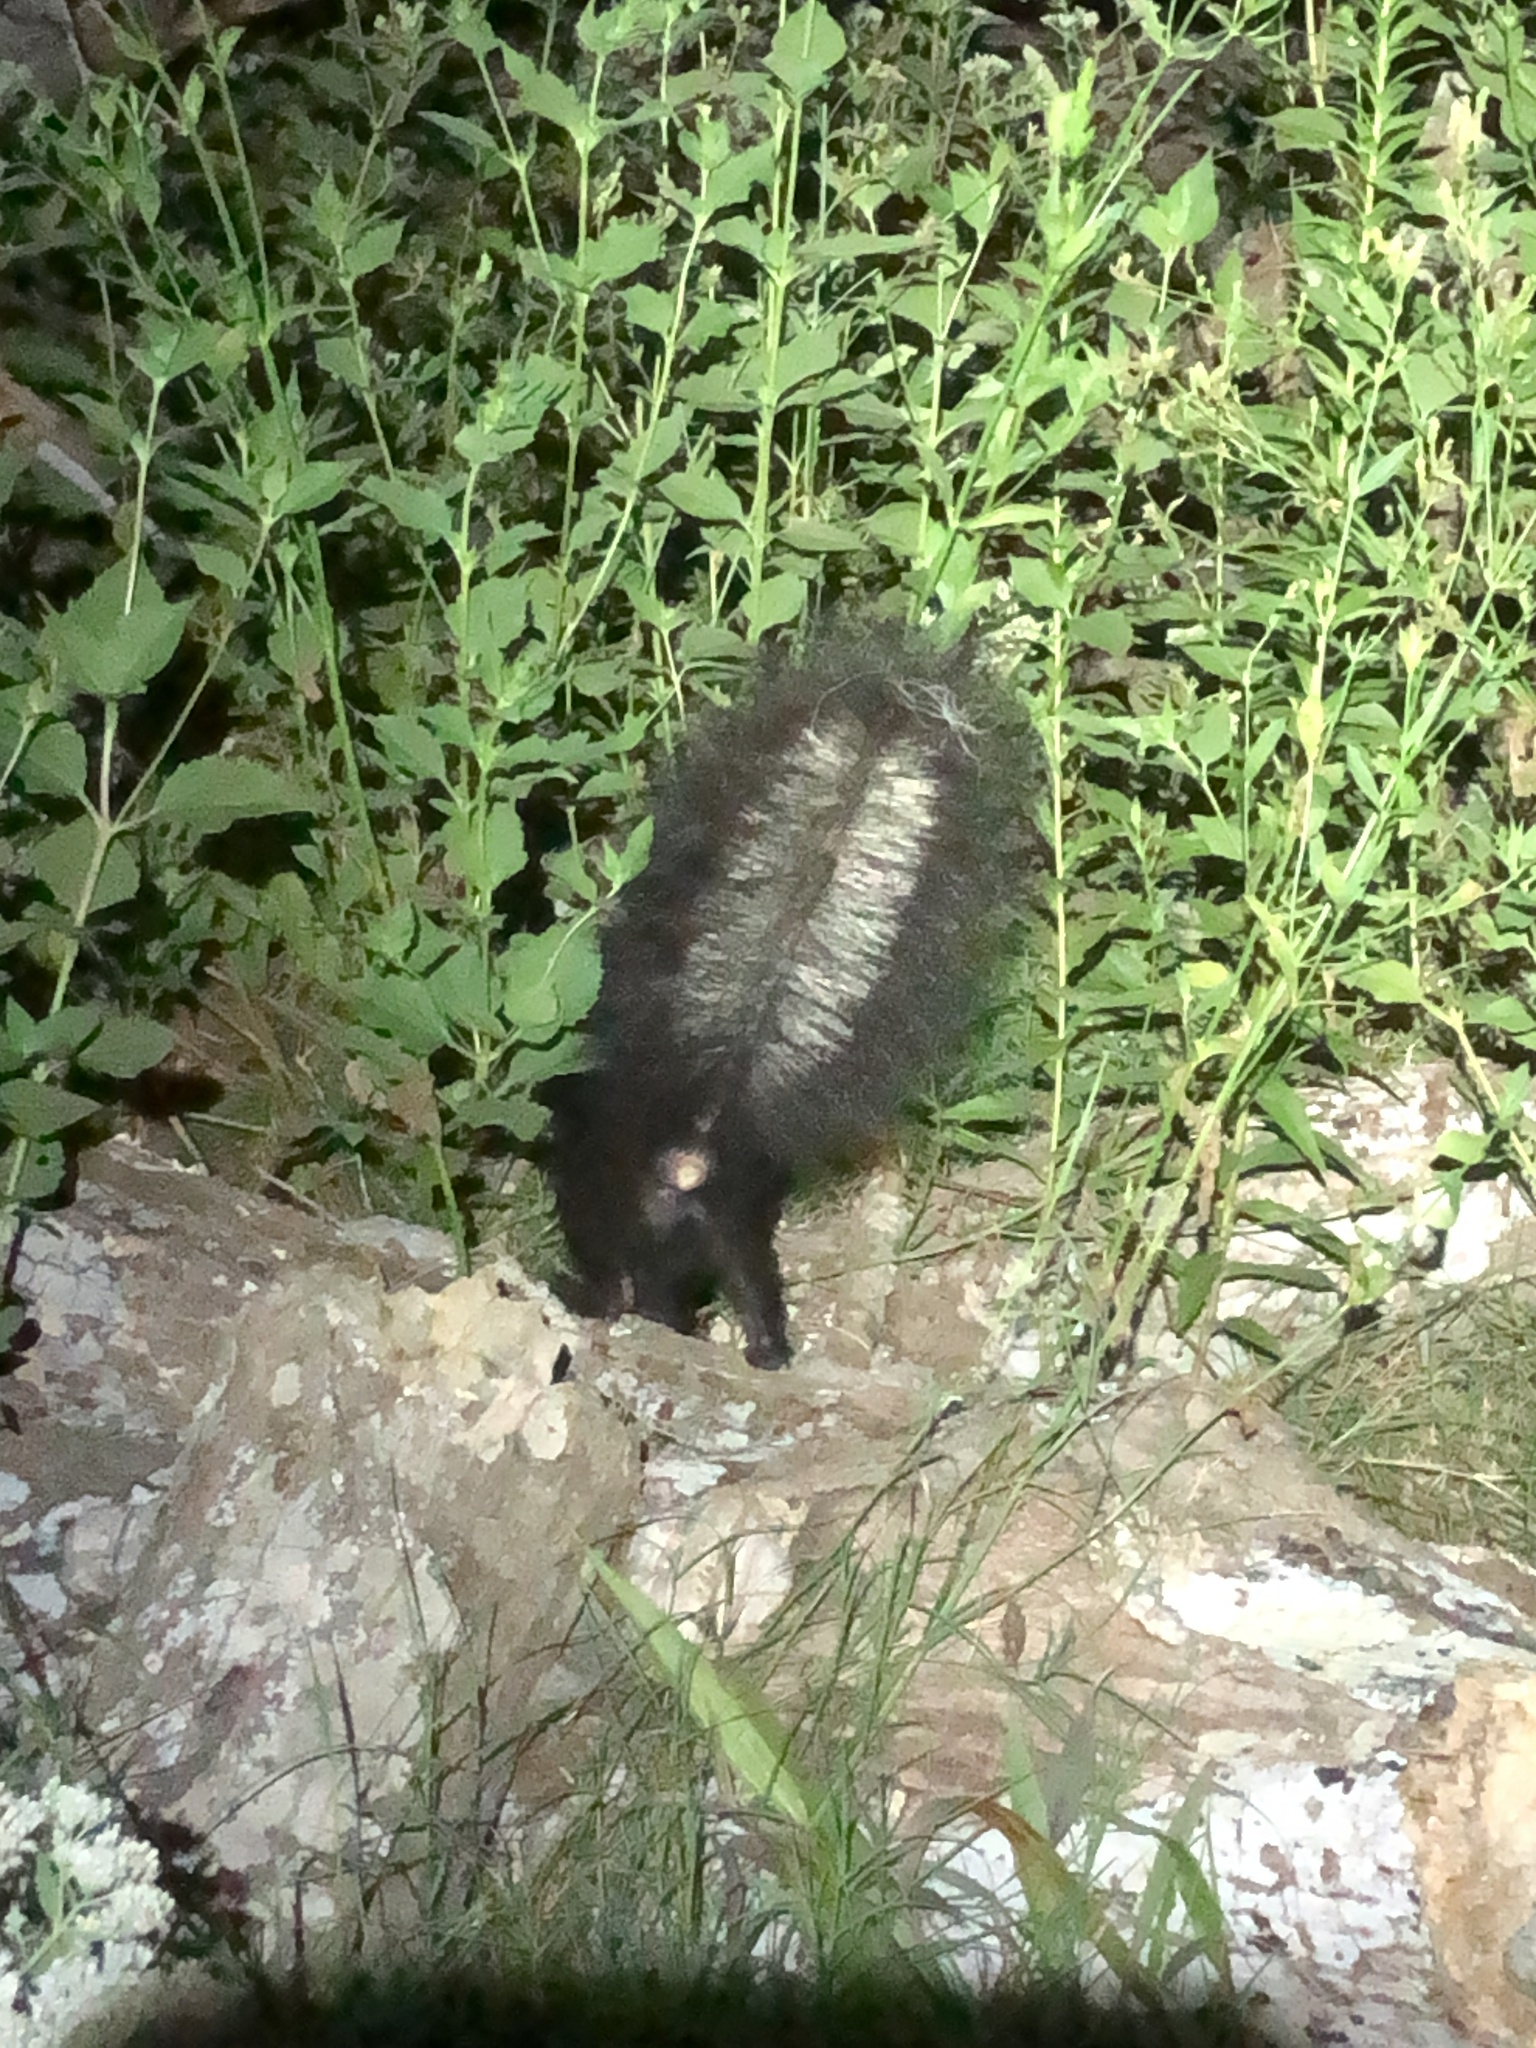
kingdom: Animalia
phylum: Chordata
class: Mammalia
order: Carnivora
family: Mephitidae
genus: Mephitis
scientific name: Mephitis mephitis
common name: Striped skunk
